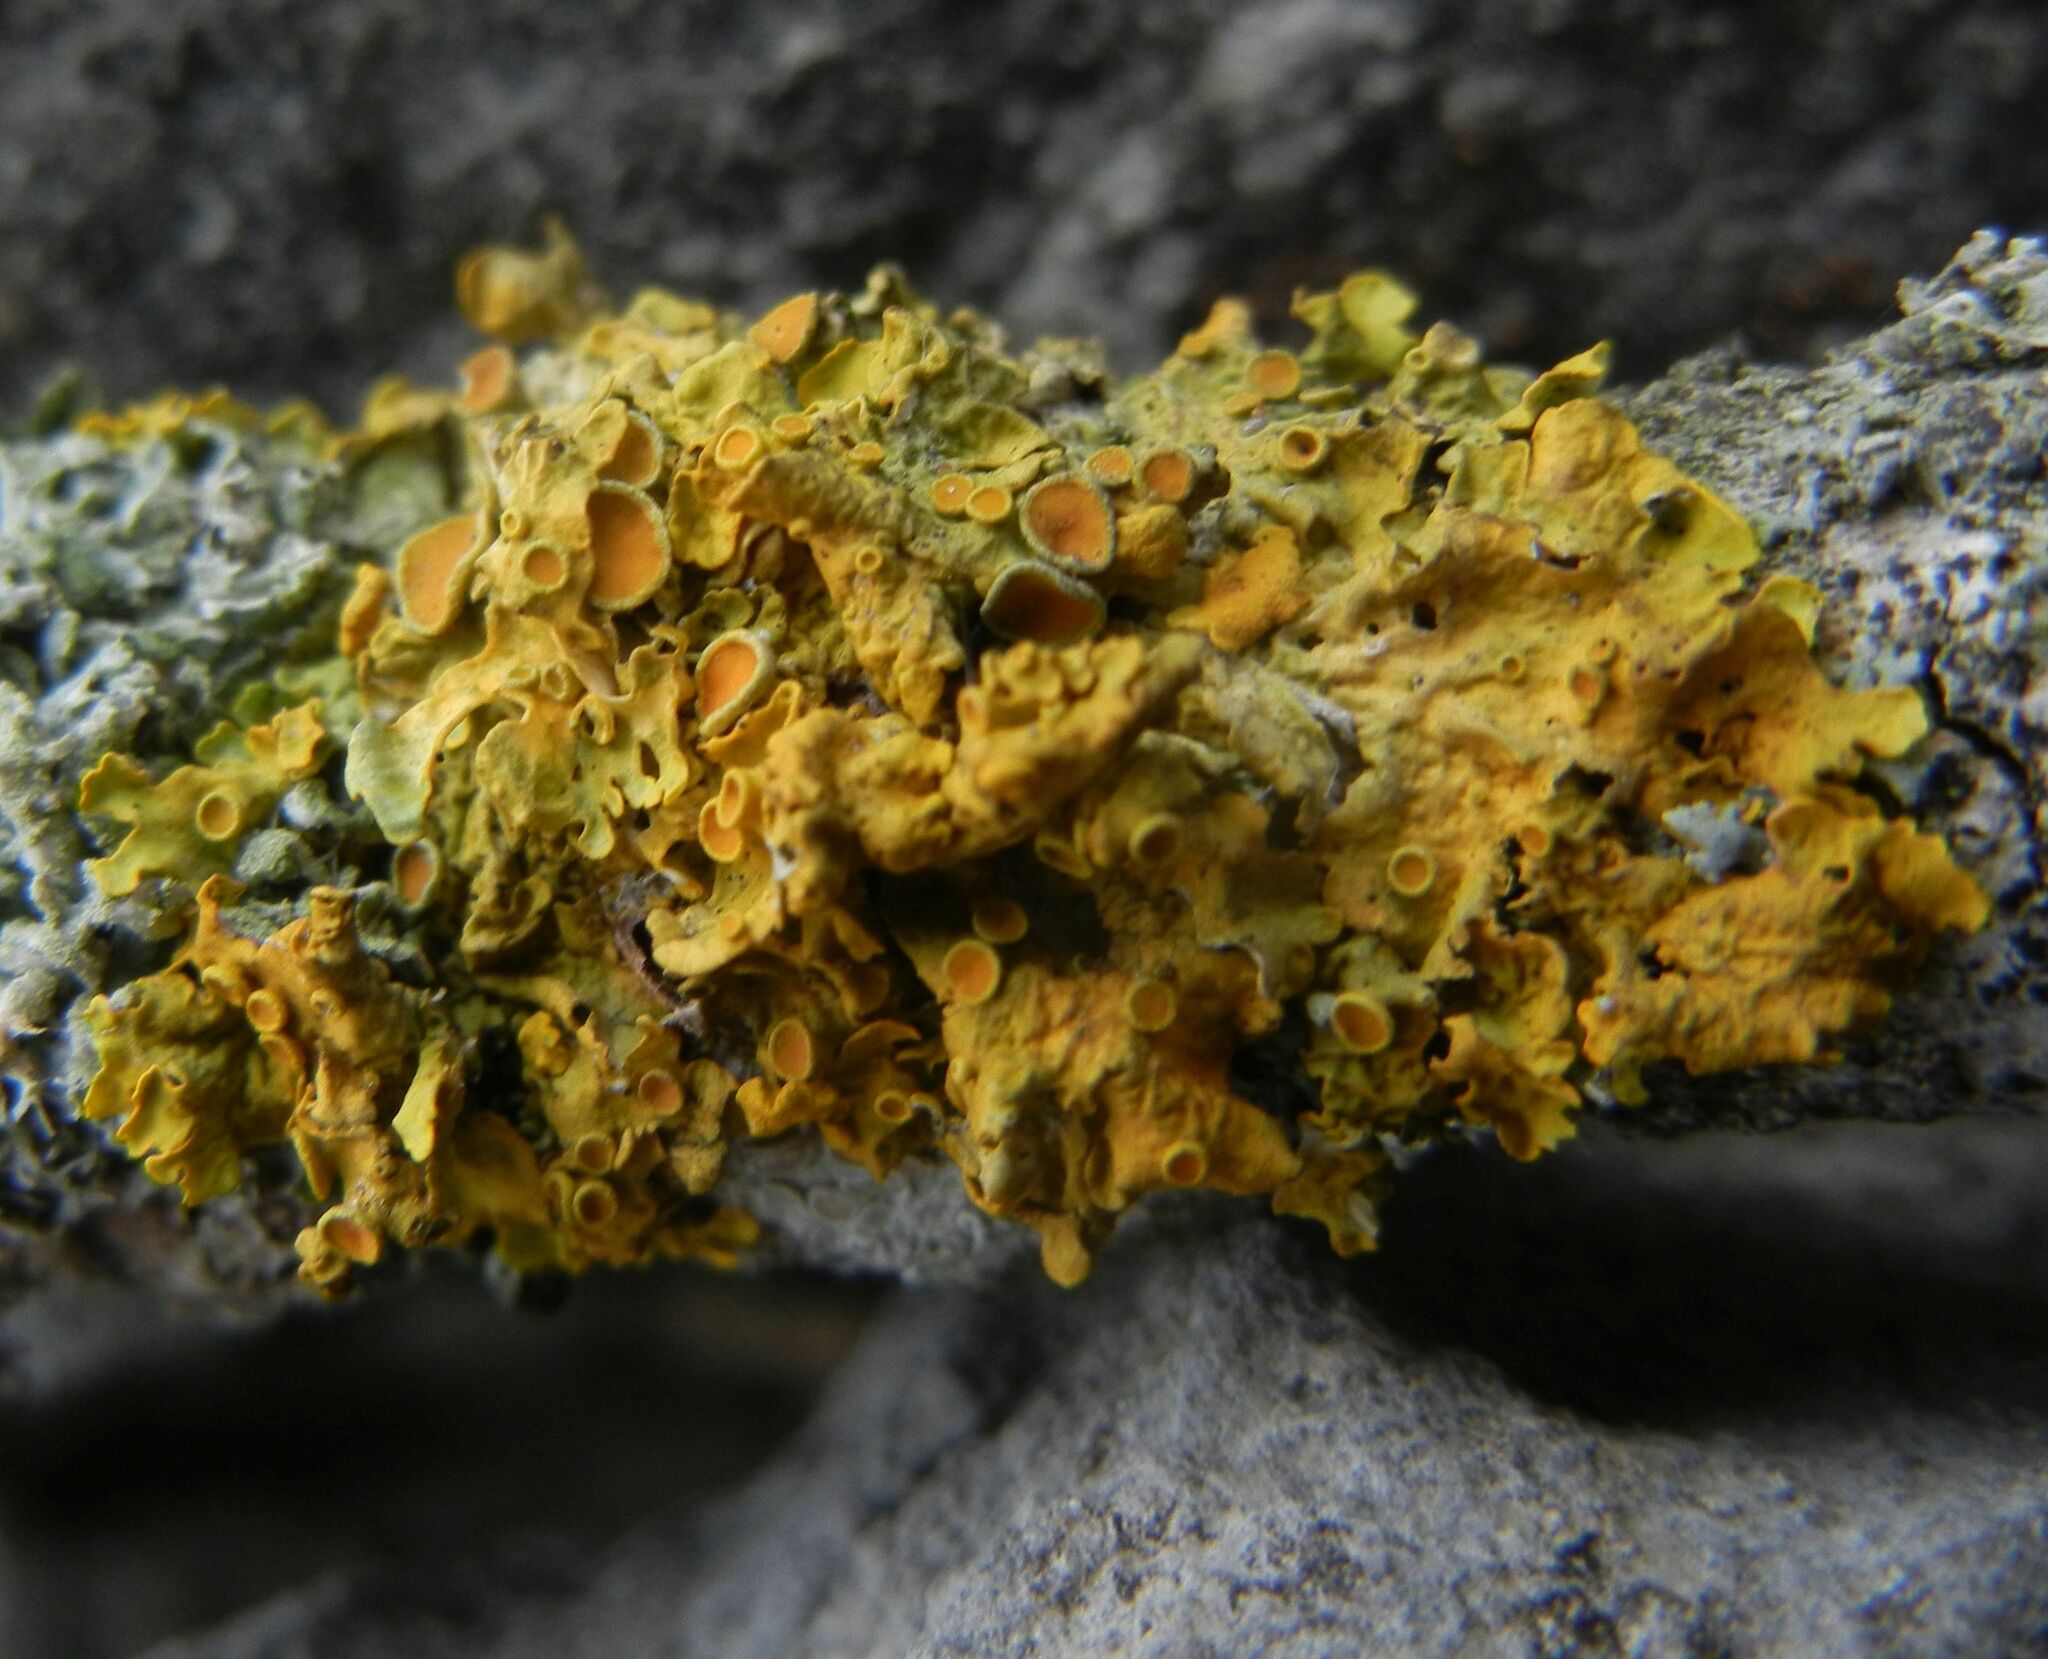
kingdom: Fungi
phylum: Ascomycota
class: Lecanoromycetes
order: Teloschistales
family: Teloschistaceae
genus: Xanthoria
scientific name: Xanthoria parietina
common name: Common orange lichen
